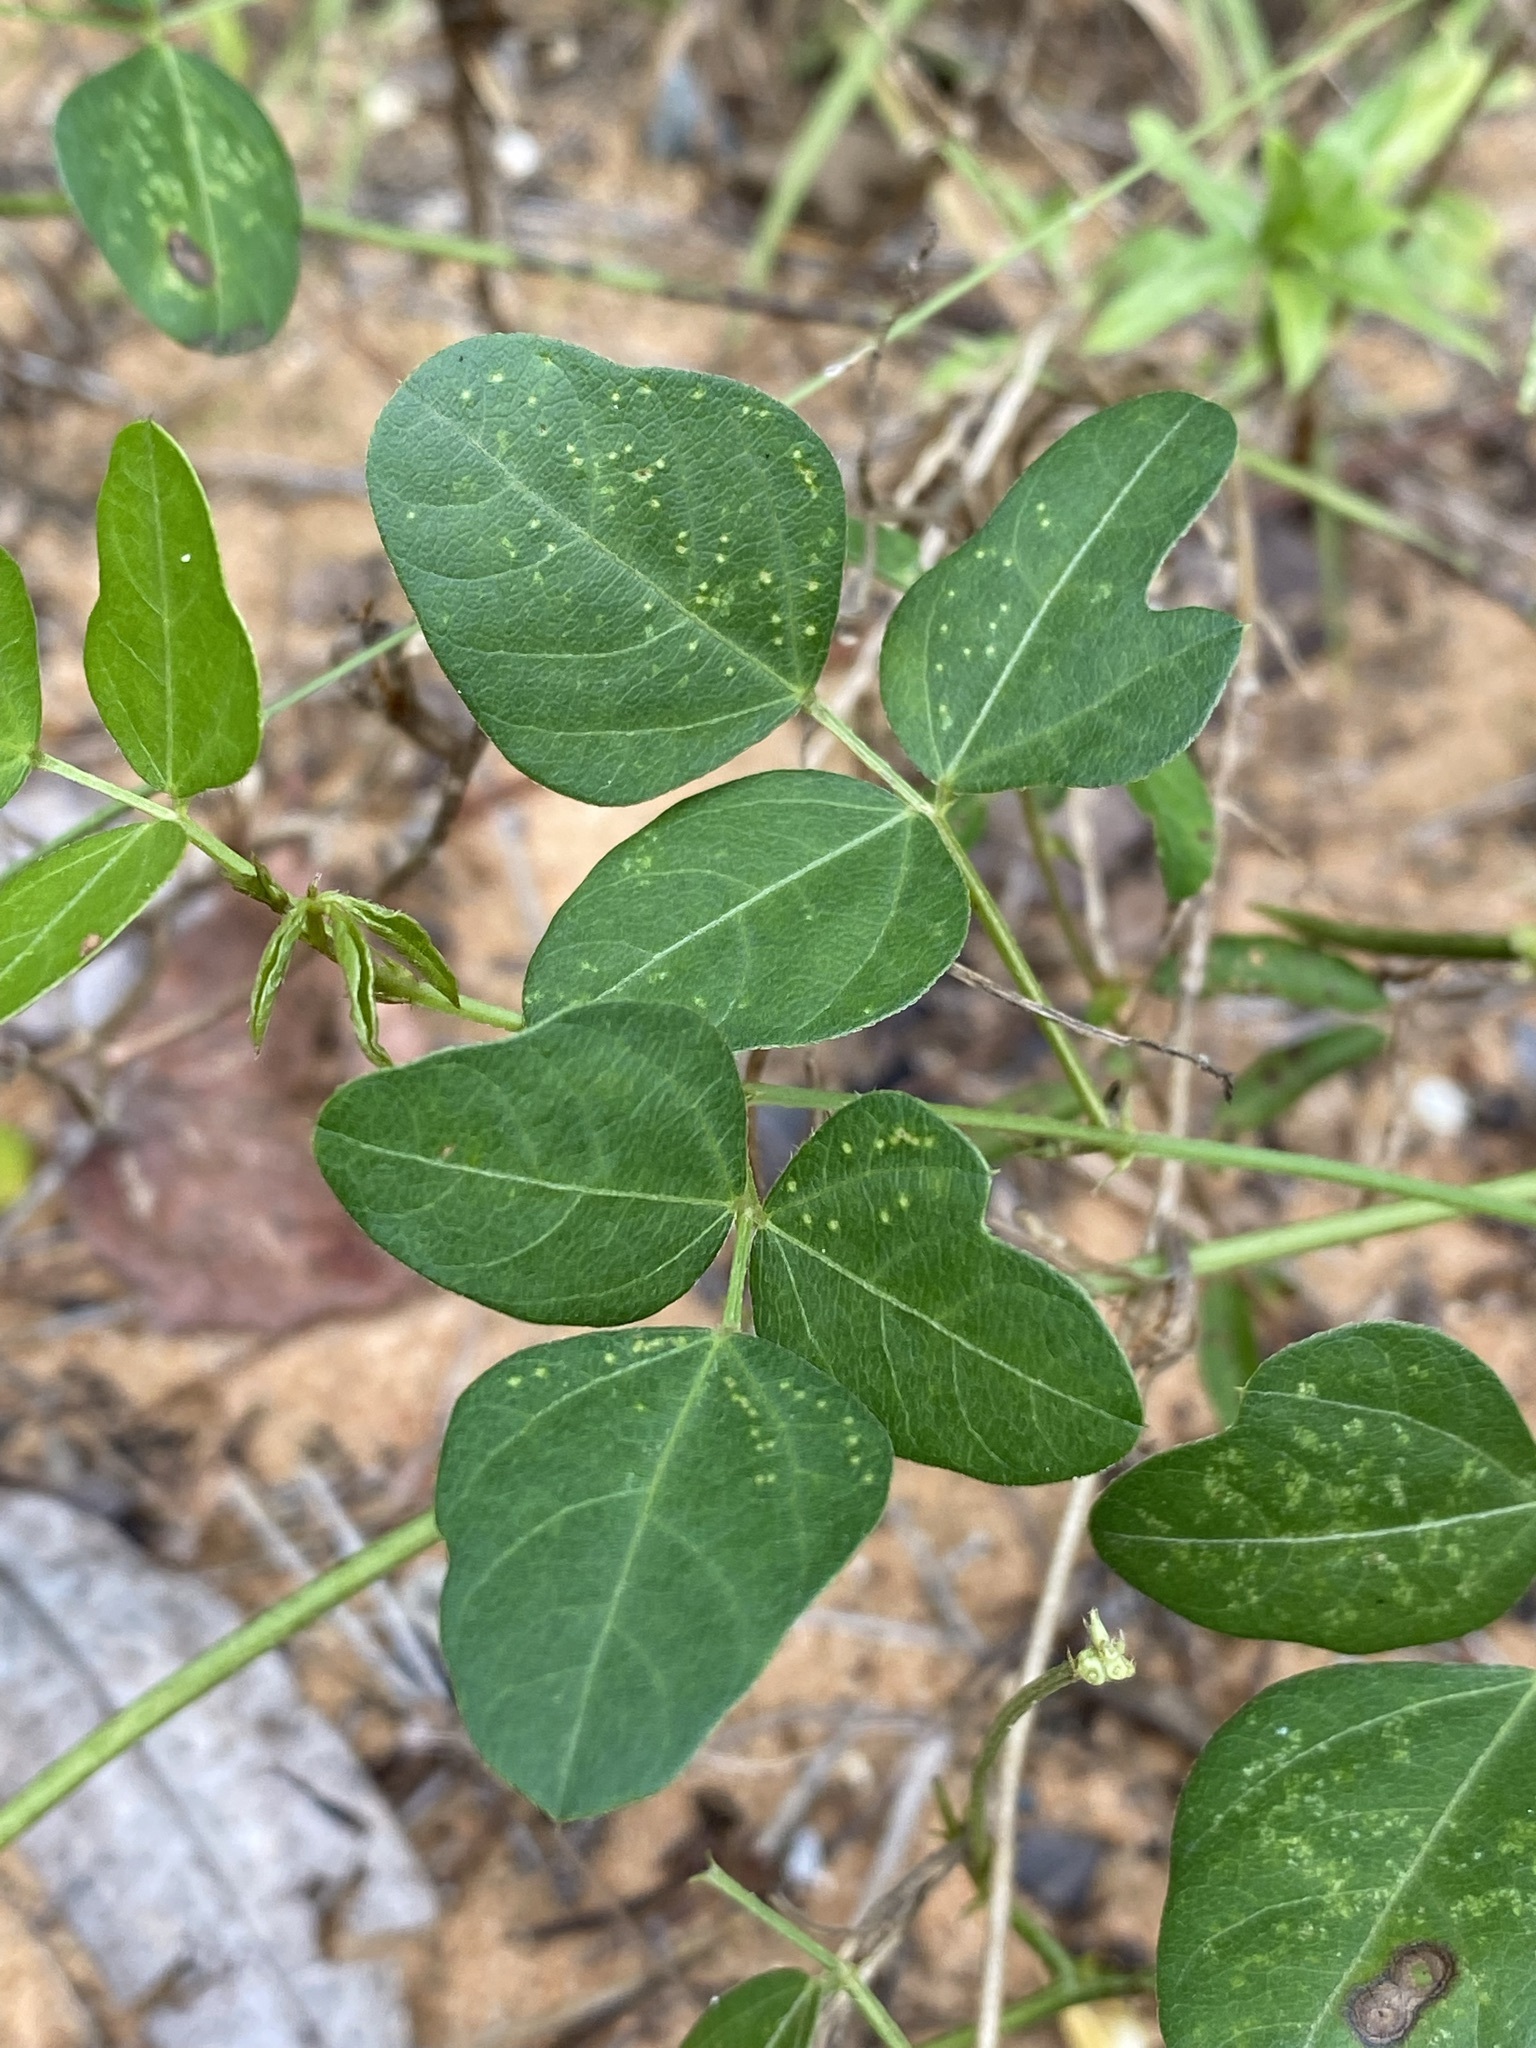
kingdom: Plantae
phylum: Tracheophyta
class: Magnoliopsida
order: Fabales
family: Fabaceae
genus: Strophostyles
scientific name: Strophostyles helvola
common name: Trailing wild bean
